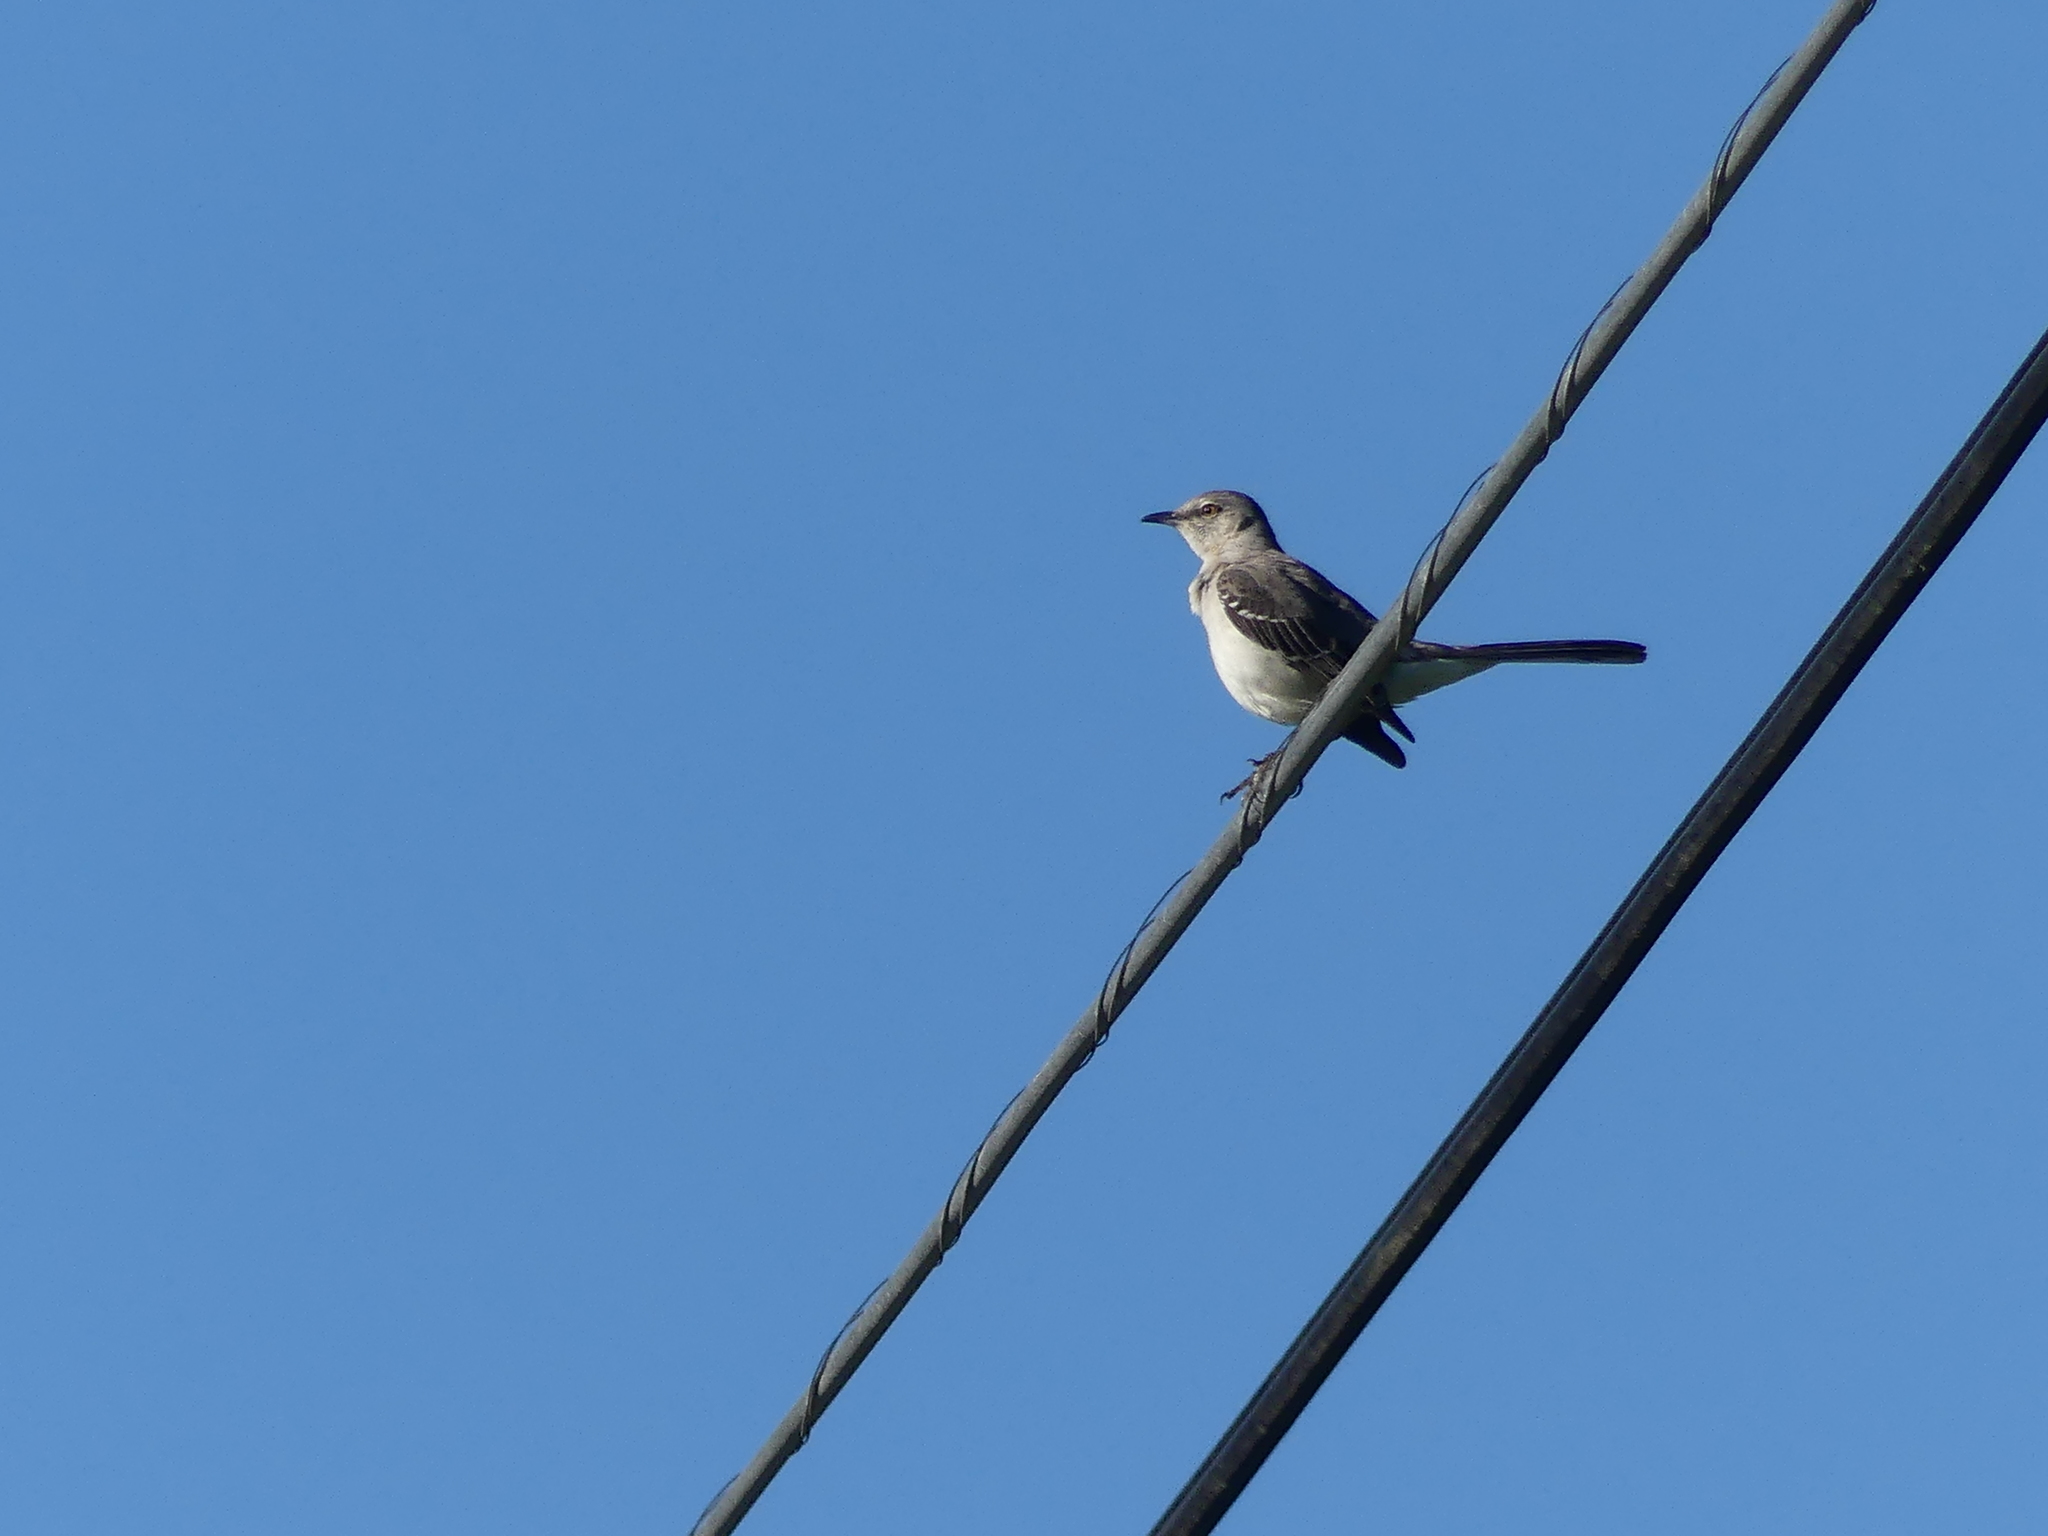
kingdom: Animalia
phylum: Chordata
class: Aves
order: Passeriformes
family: Mimidae
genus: Mimus
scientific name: Mimus polyglottos
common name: Northern mockingbird
